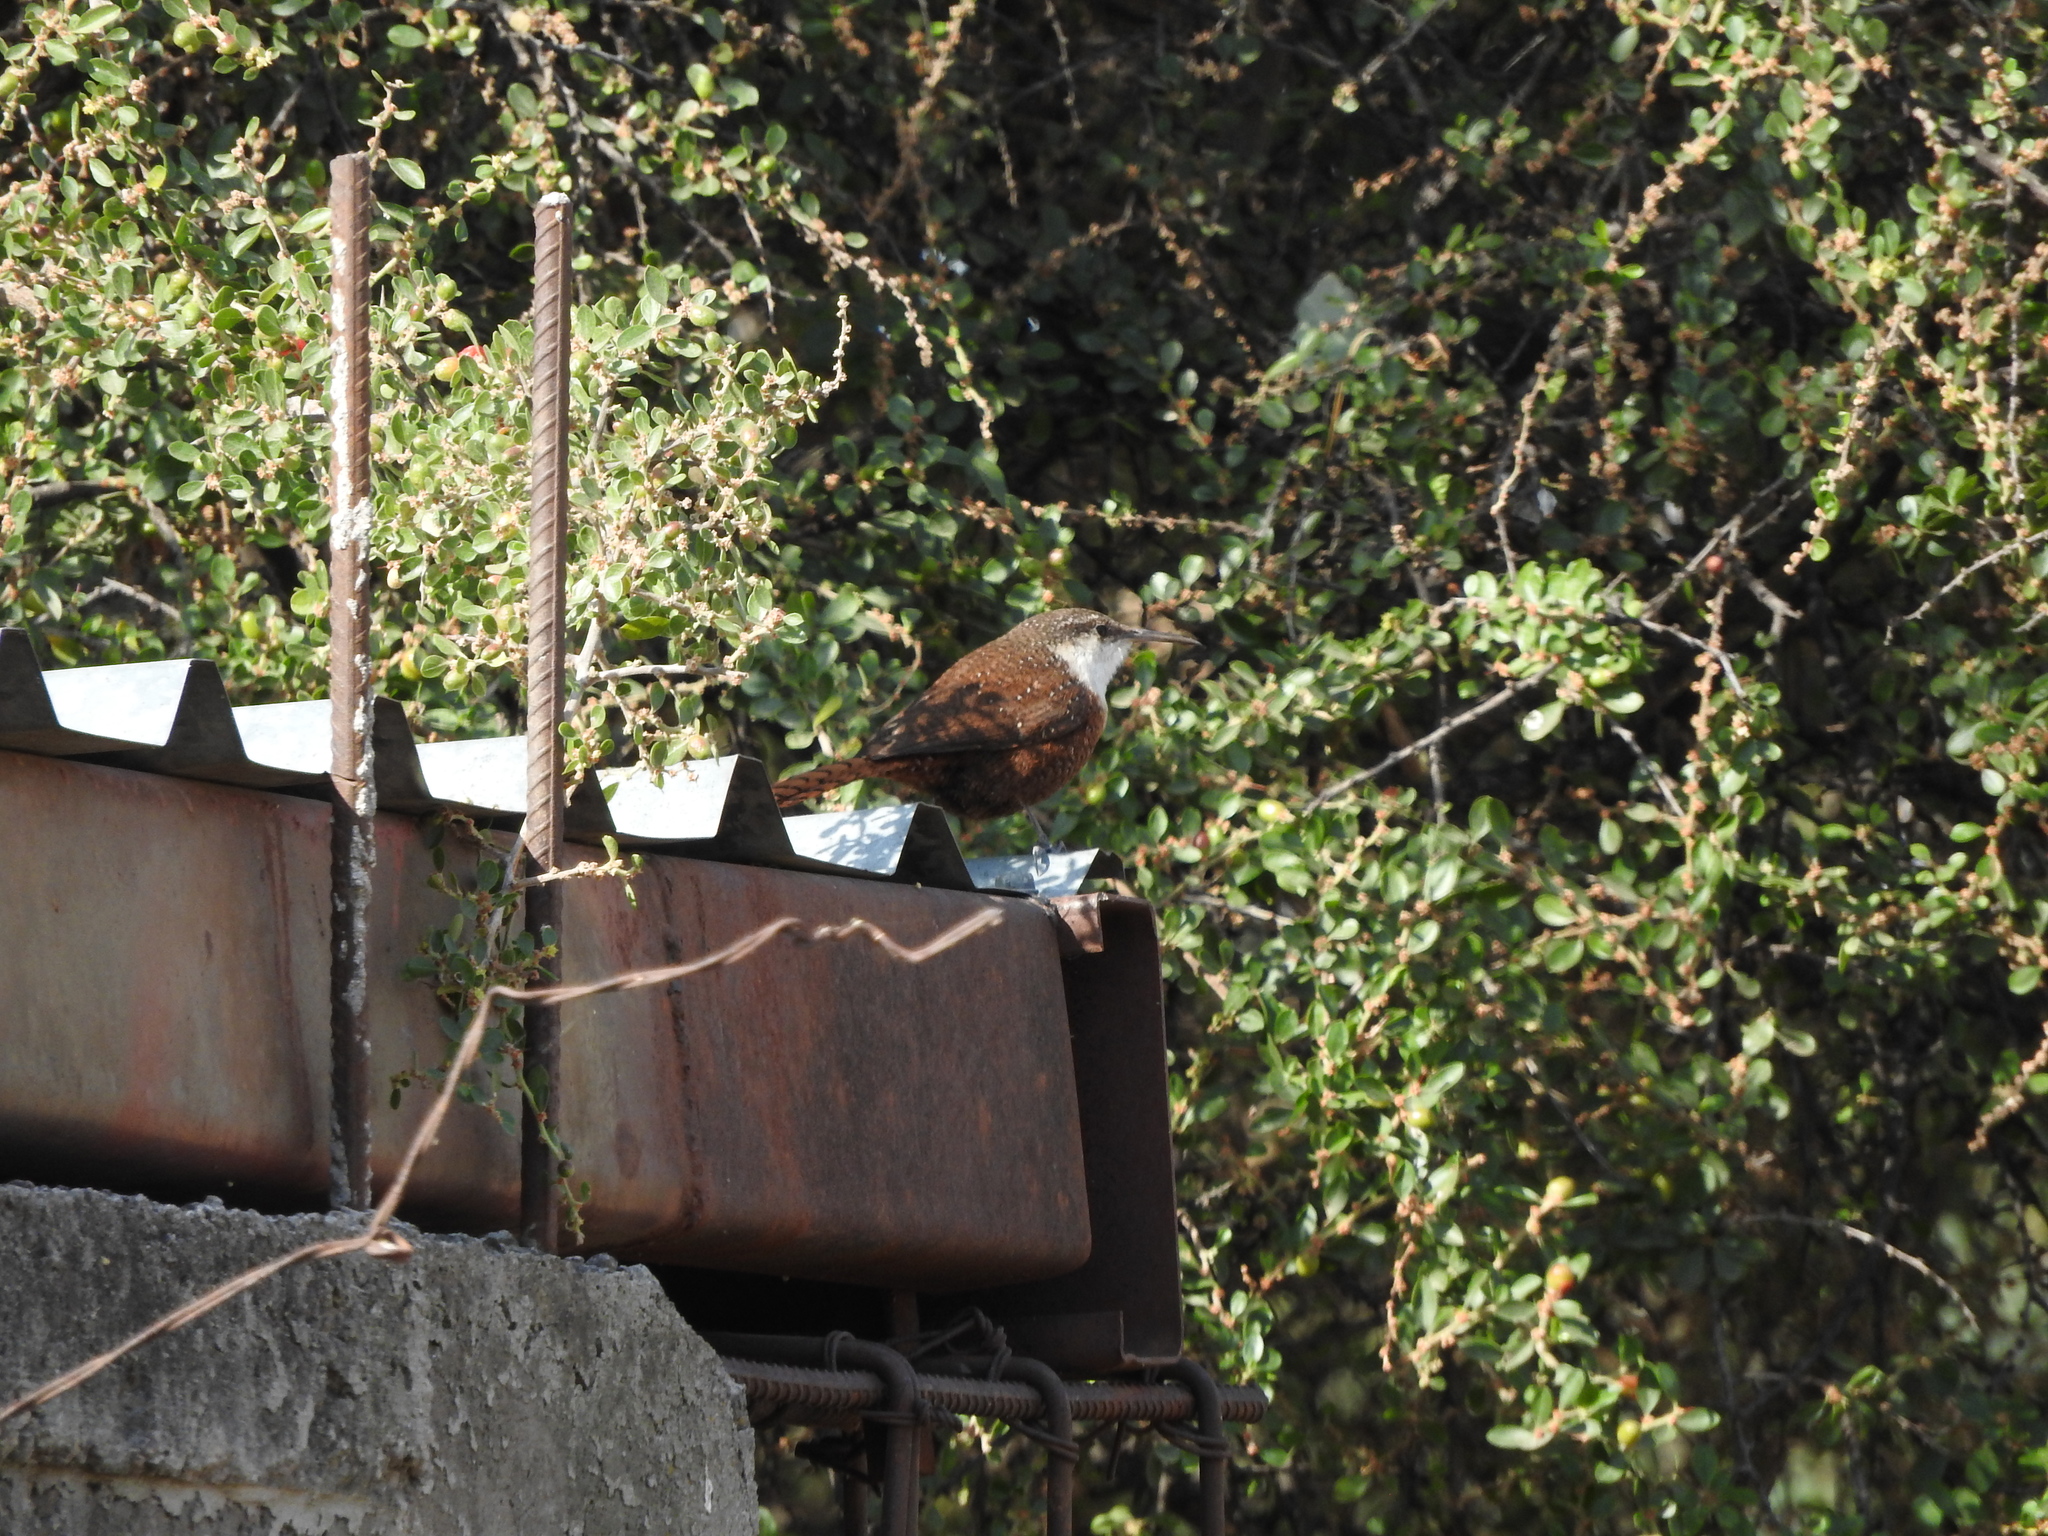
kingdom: Animalia
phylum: Chordata
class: Aves
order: Passeriformes
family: Troglodytidae
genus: Catherpes
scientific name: Catherpes mexicanus
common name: Canyon wren
